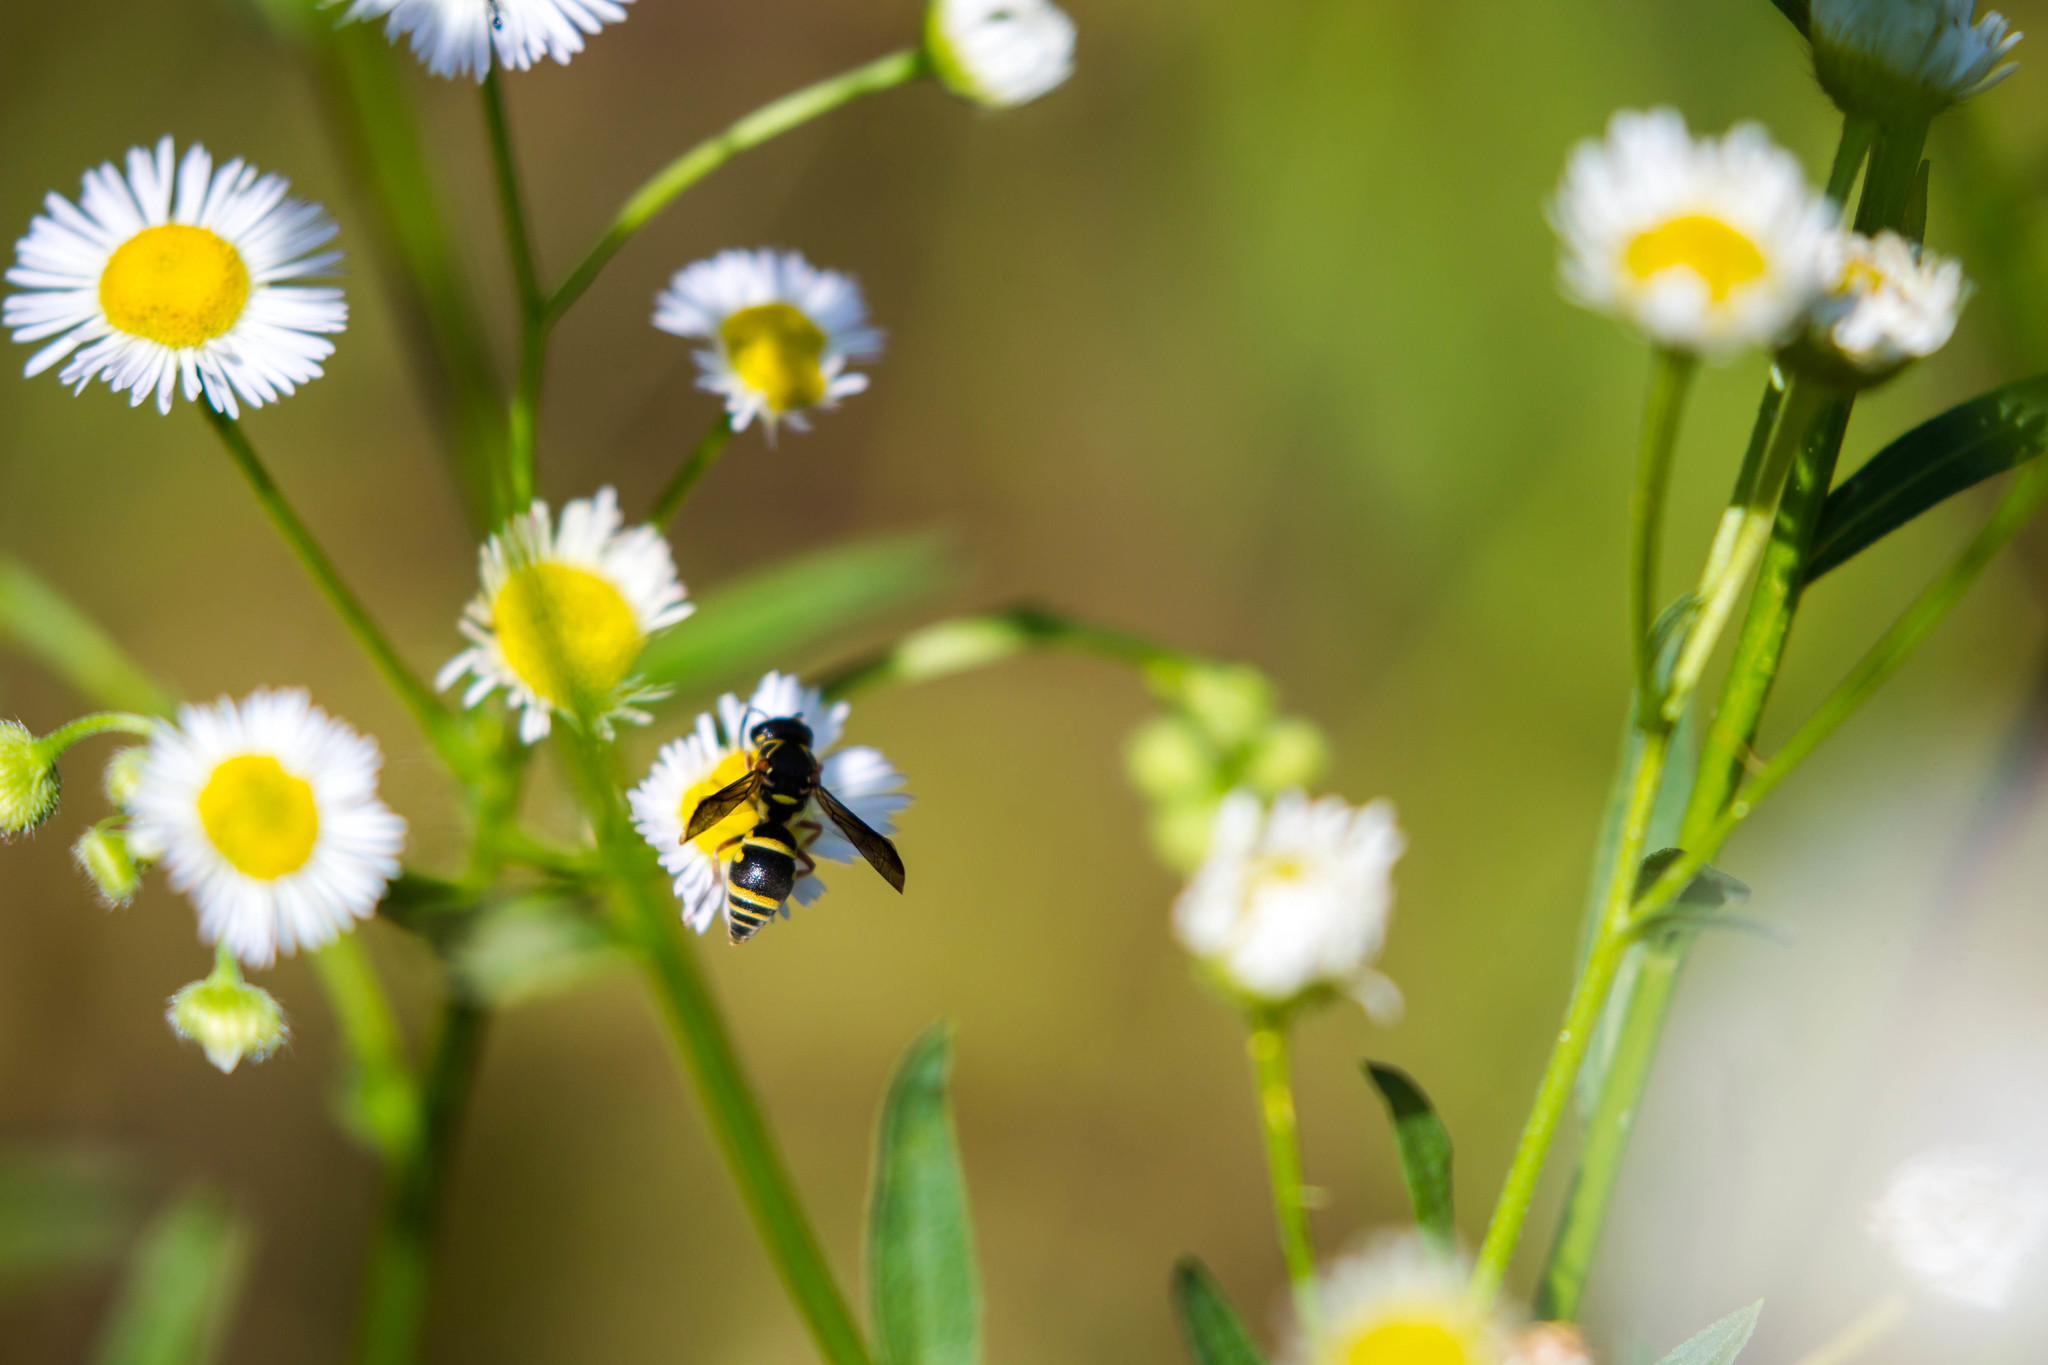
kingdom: Animalia
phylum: Arthropoda
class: Insecta
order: Hymenoptera
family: Eumenidae
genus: Stenodynerus
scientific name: Stenodynerus
